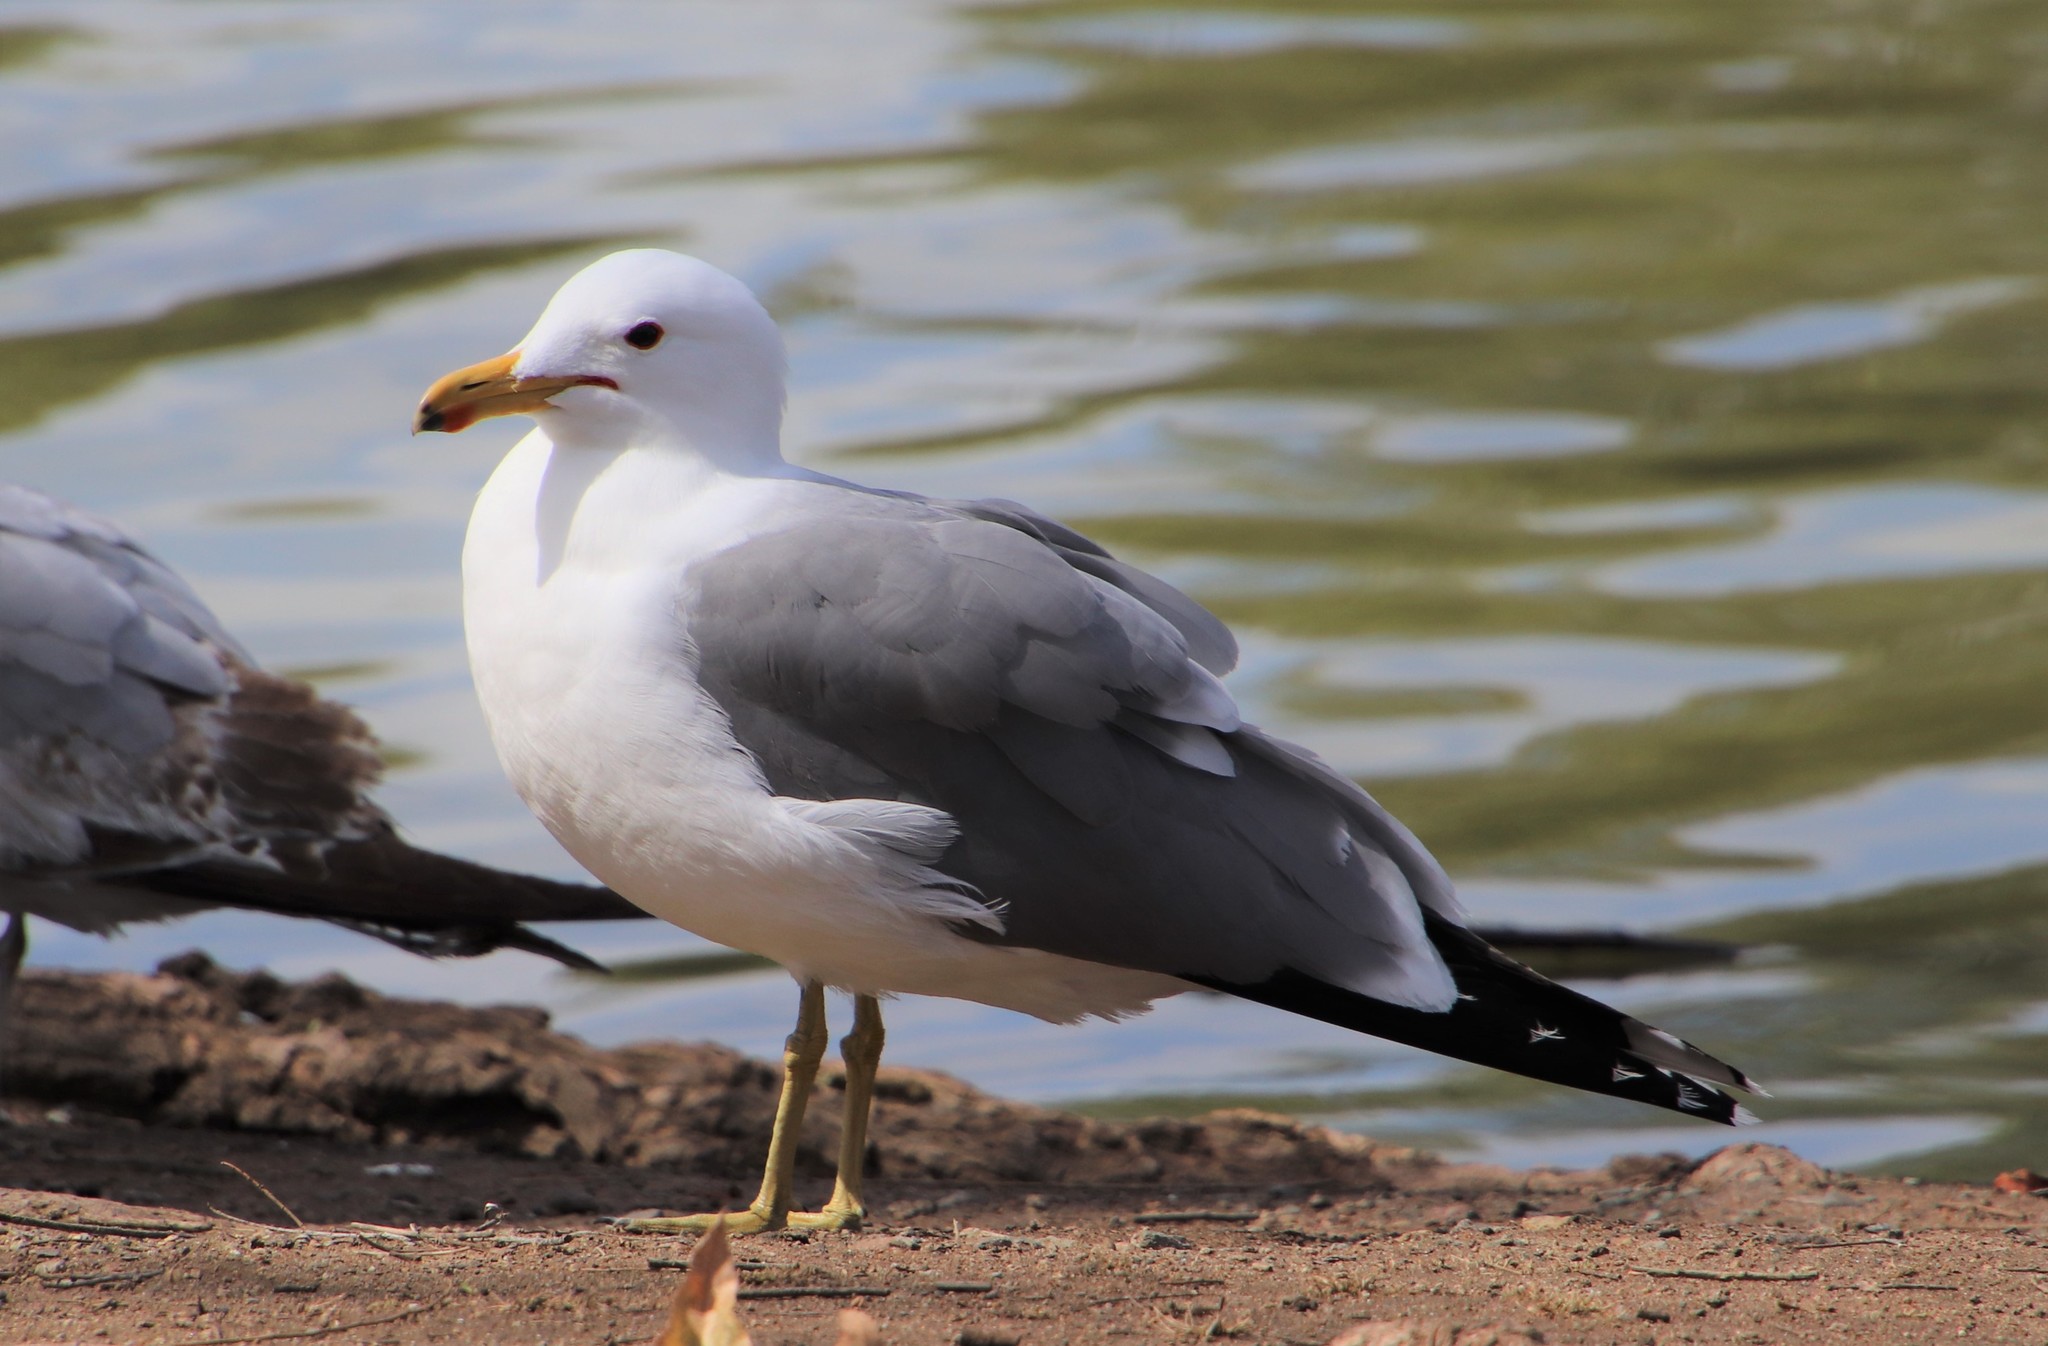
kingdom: Animalia
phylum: Chordata
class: Aves
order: Charadriiformes
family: Laridae
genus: Larus
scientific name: Larus californicus
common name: California gull
